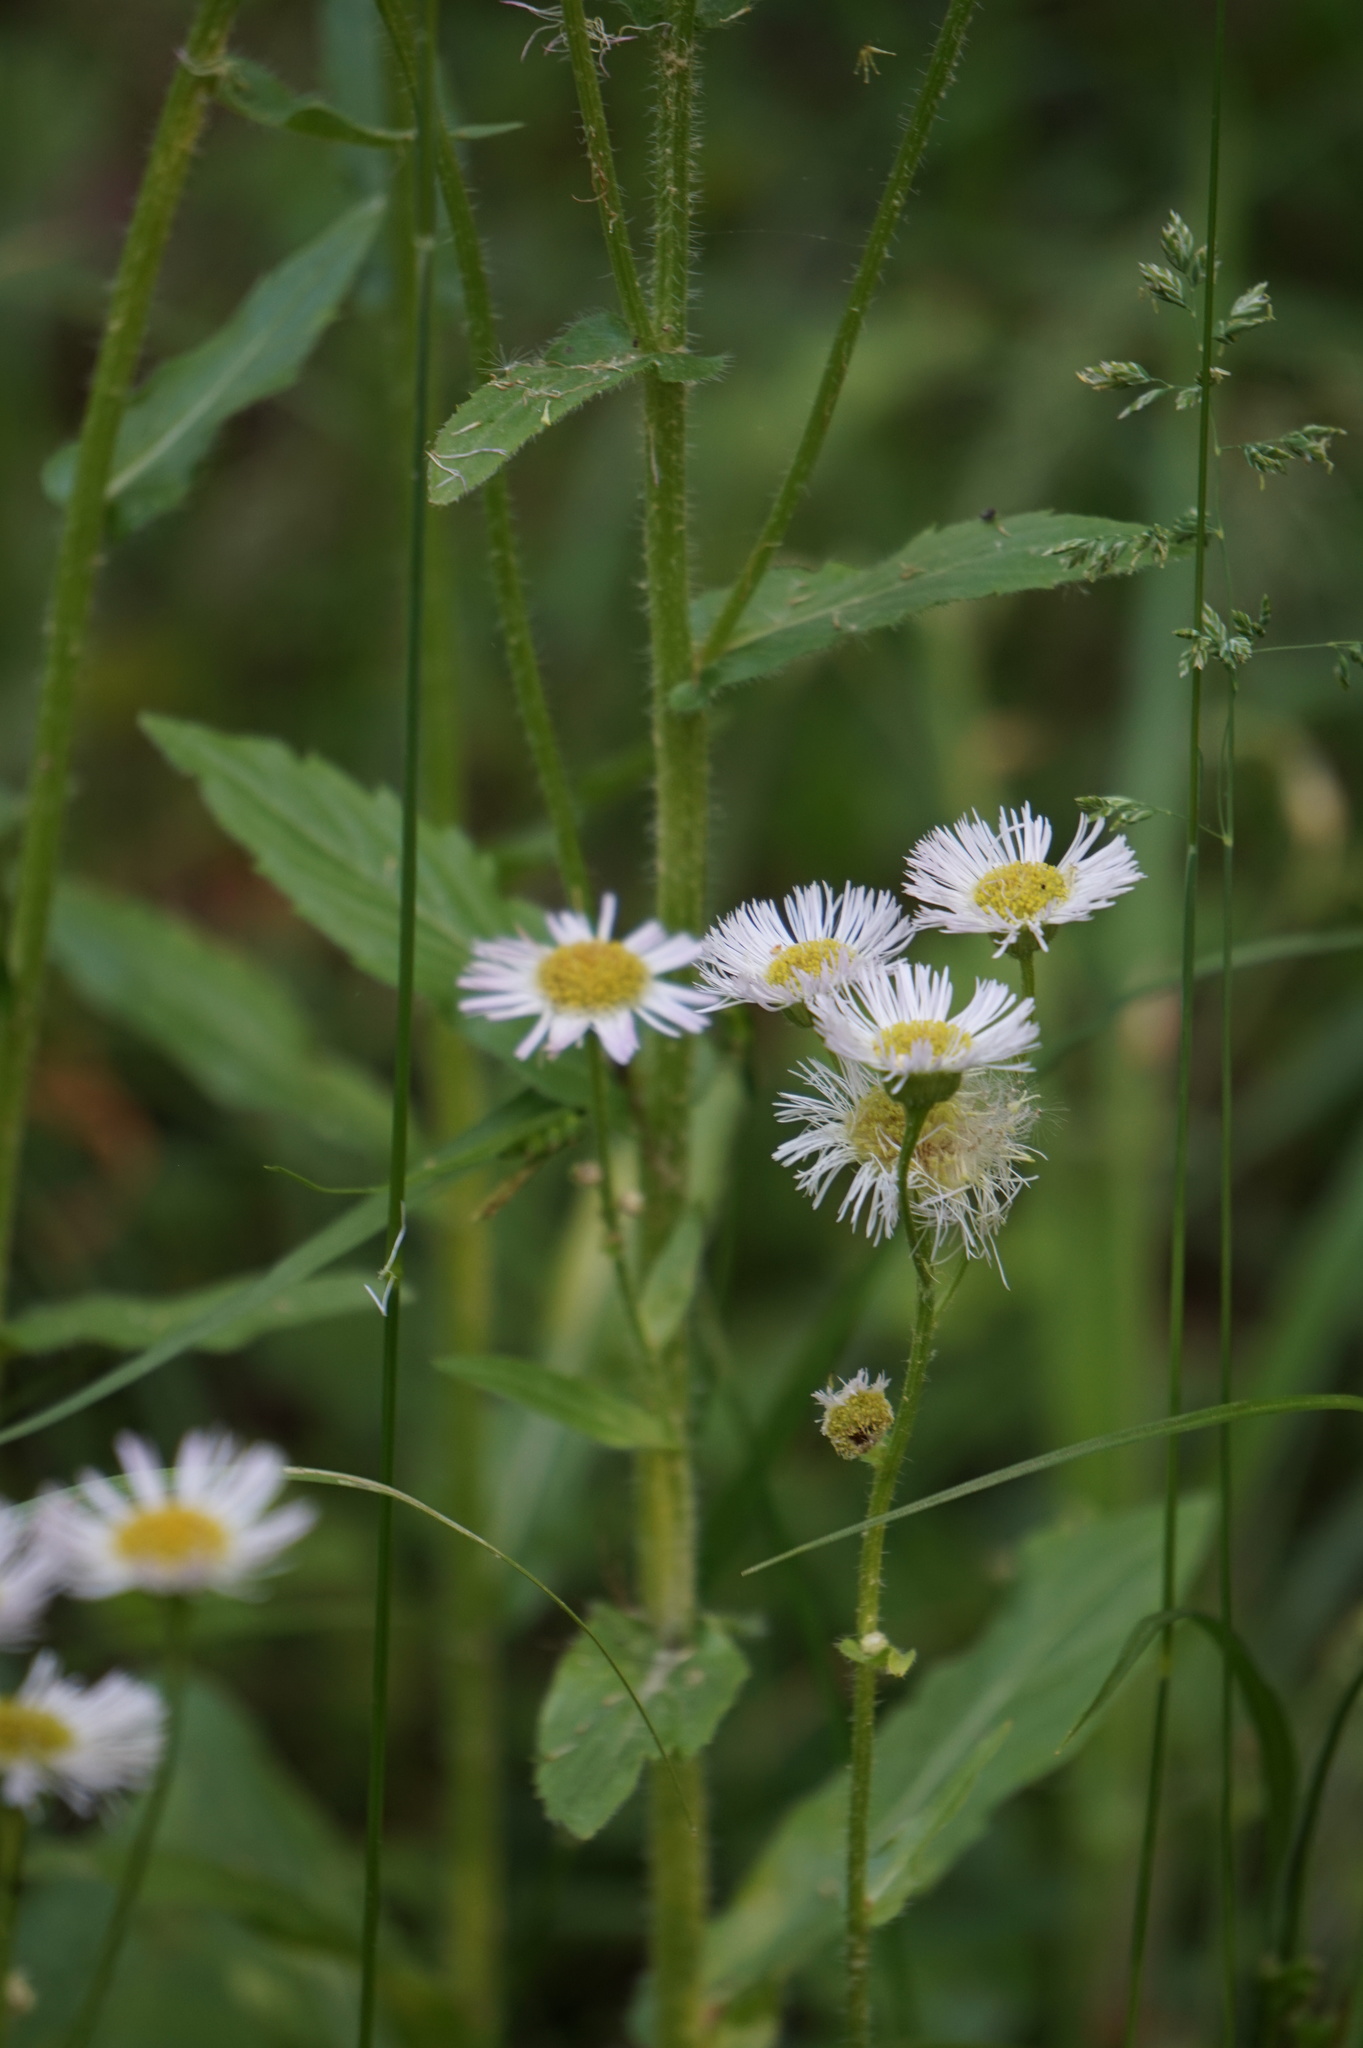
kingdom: Plantae
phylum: Tracheophyta
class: Magnoliopsida
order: Asterales
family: Asteraceae
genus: Erigeron
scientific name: Erigeron philadelphicus
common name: Robin's-plantain
